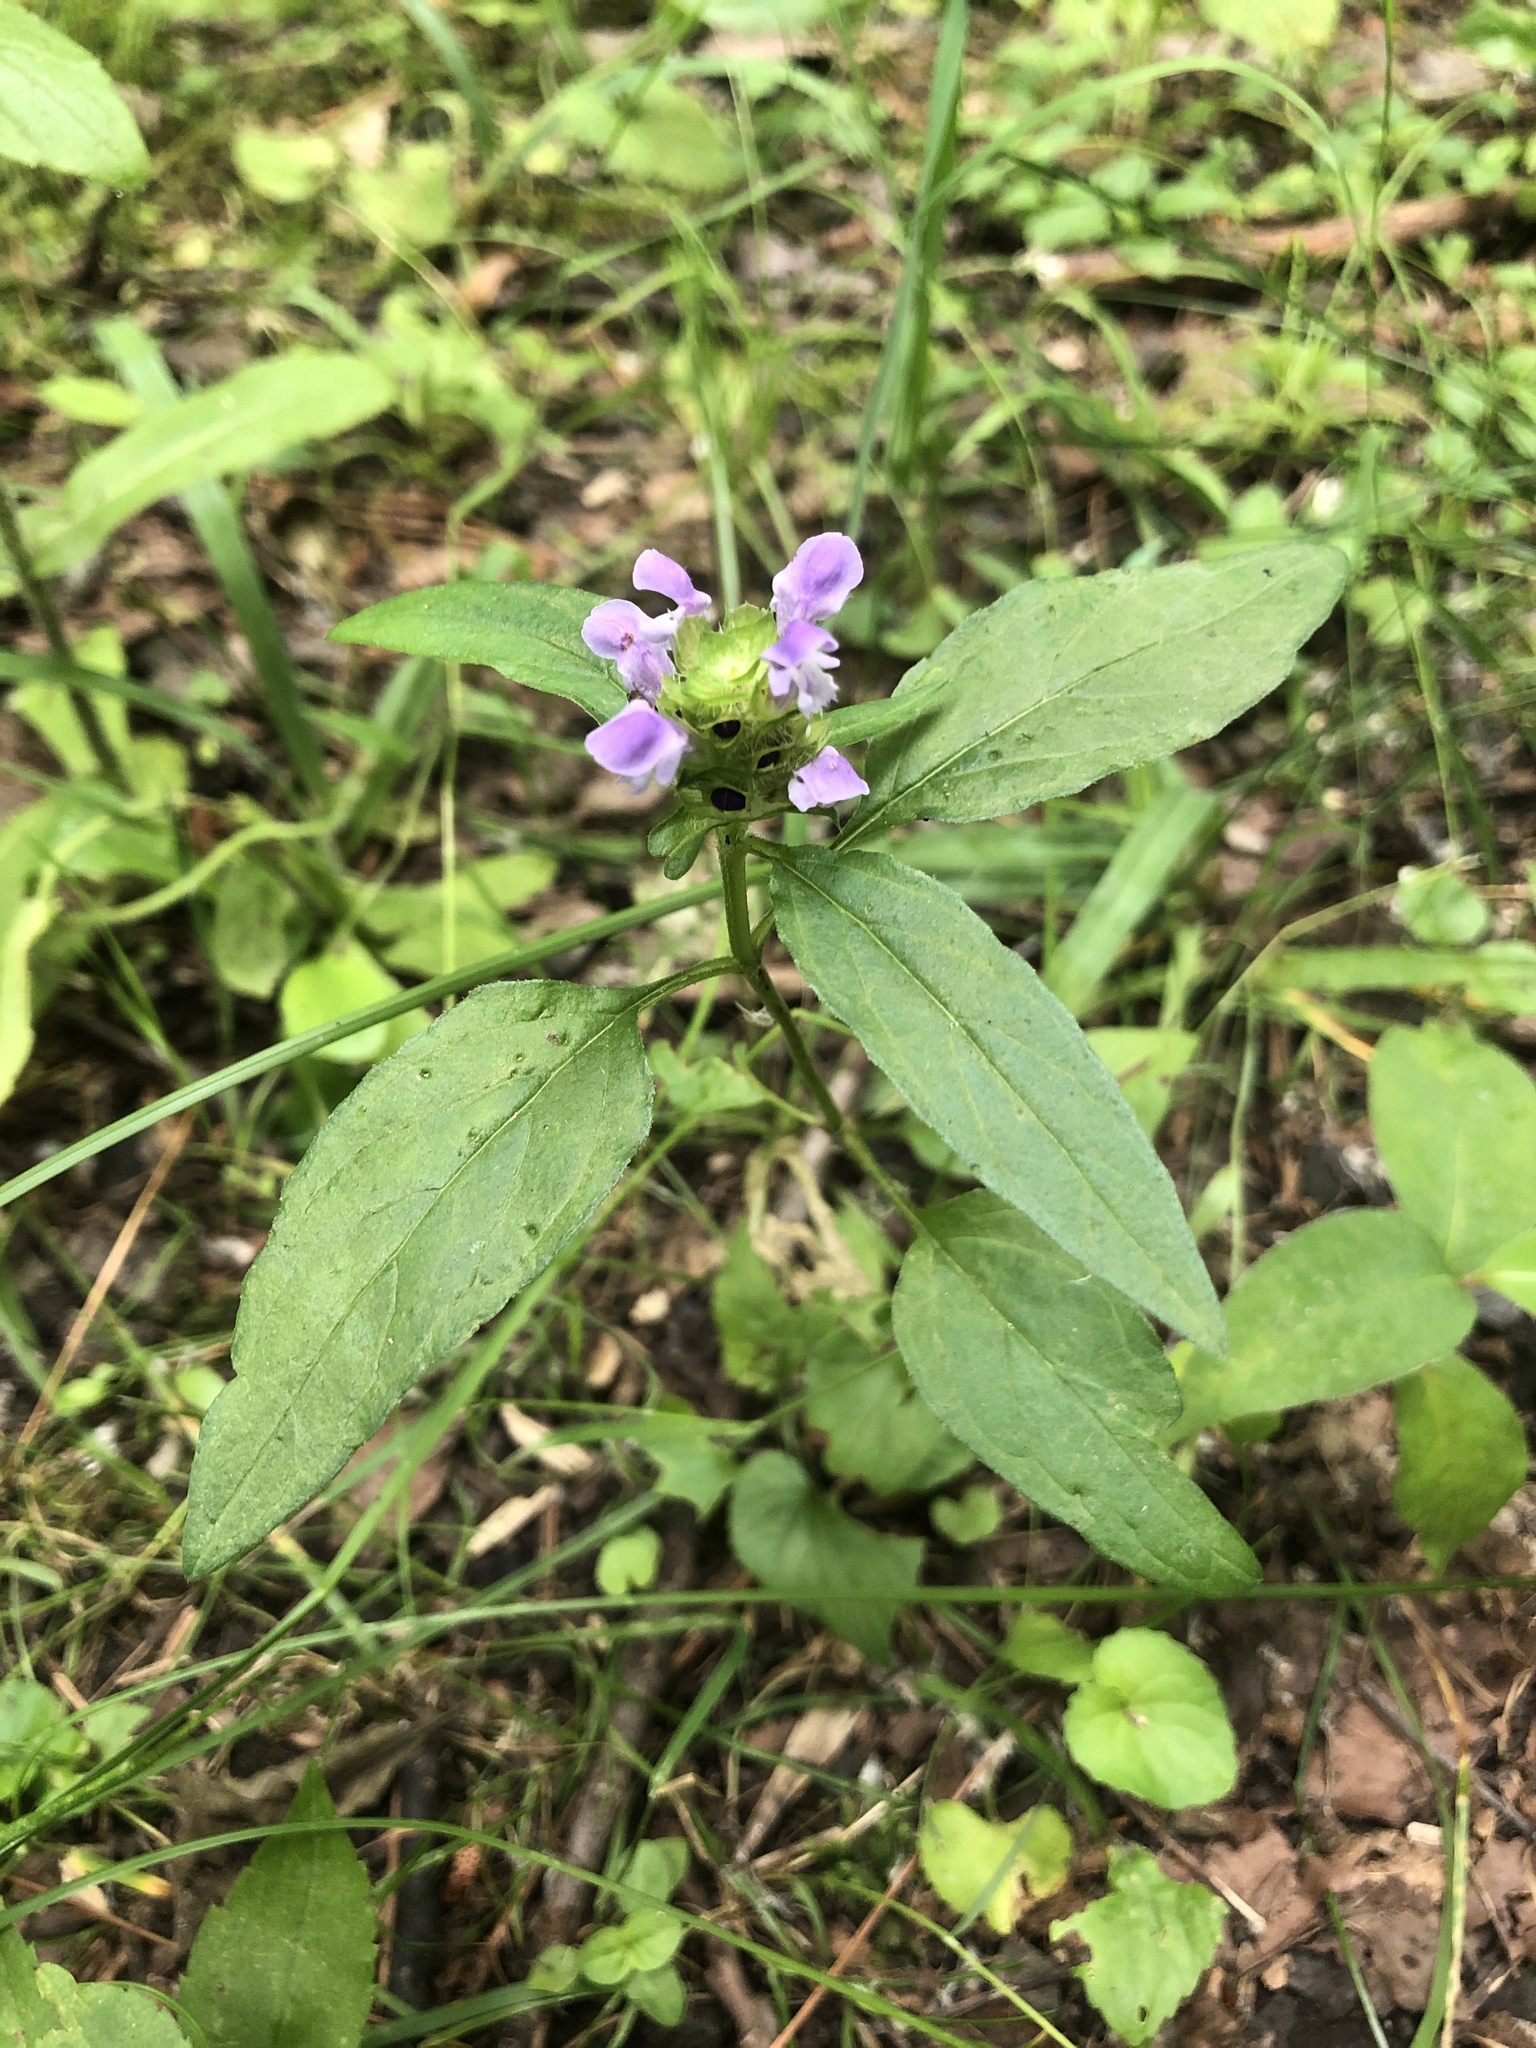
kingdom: Plantae
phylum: Tracheophyta
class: Magnoliopsida
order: Lamiales
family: Lamiaceae
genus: Prunella
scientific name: Prunella vulgaris
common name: Heal-all
